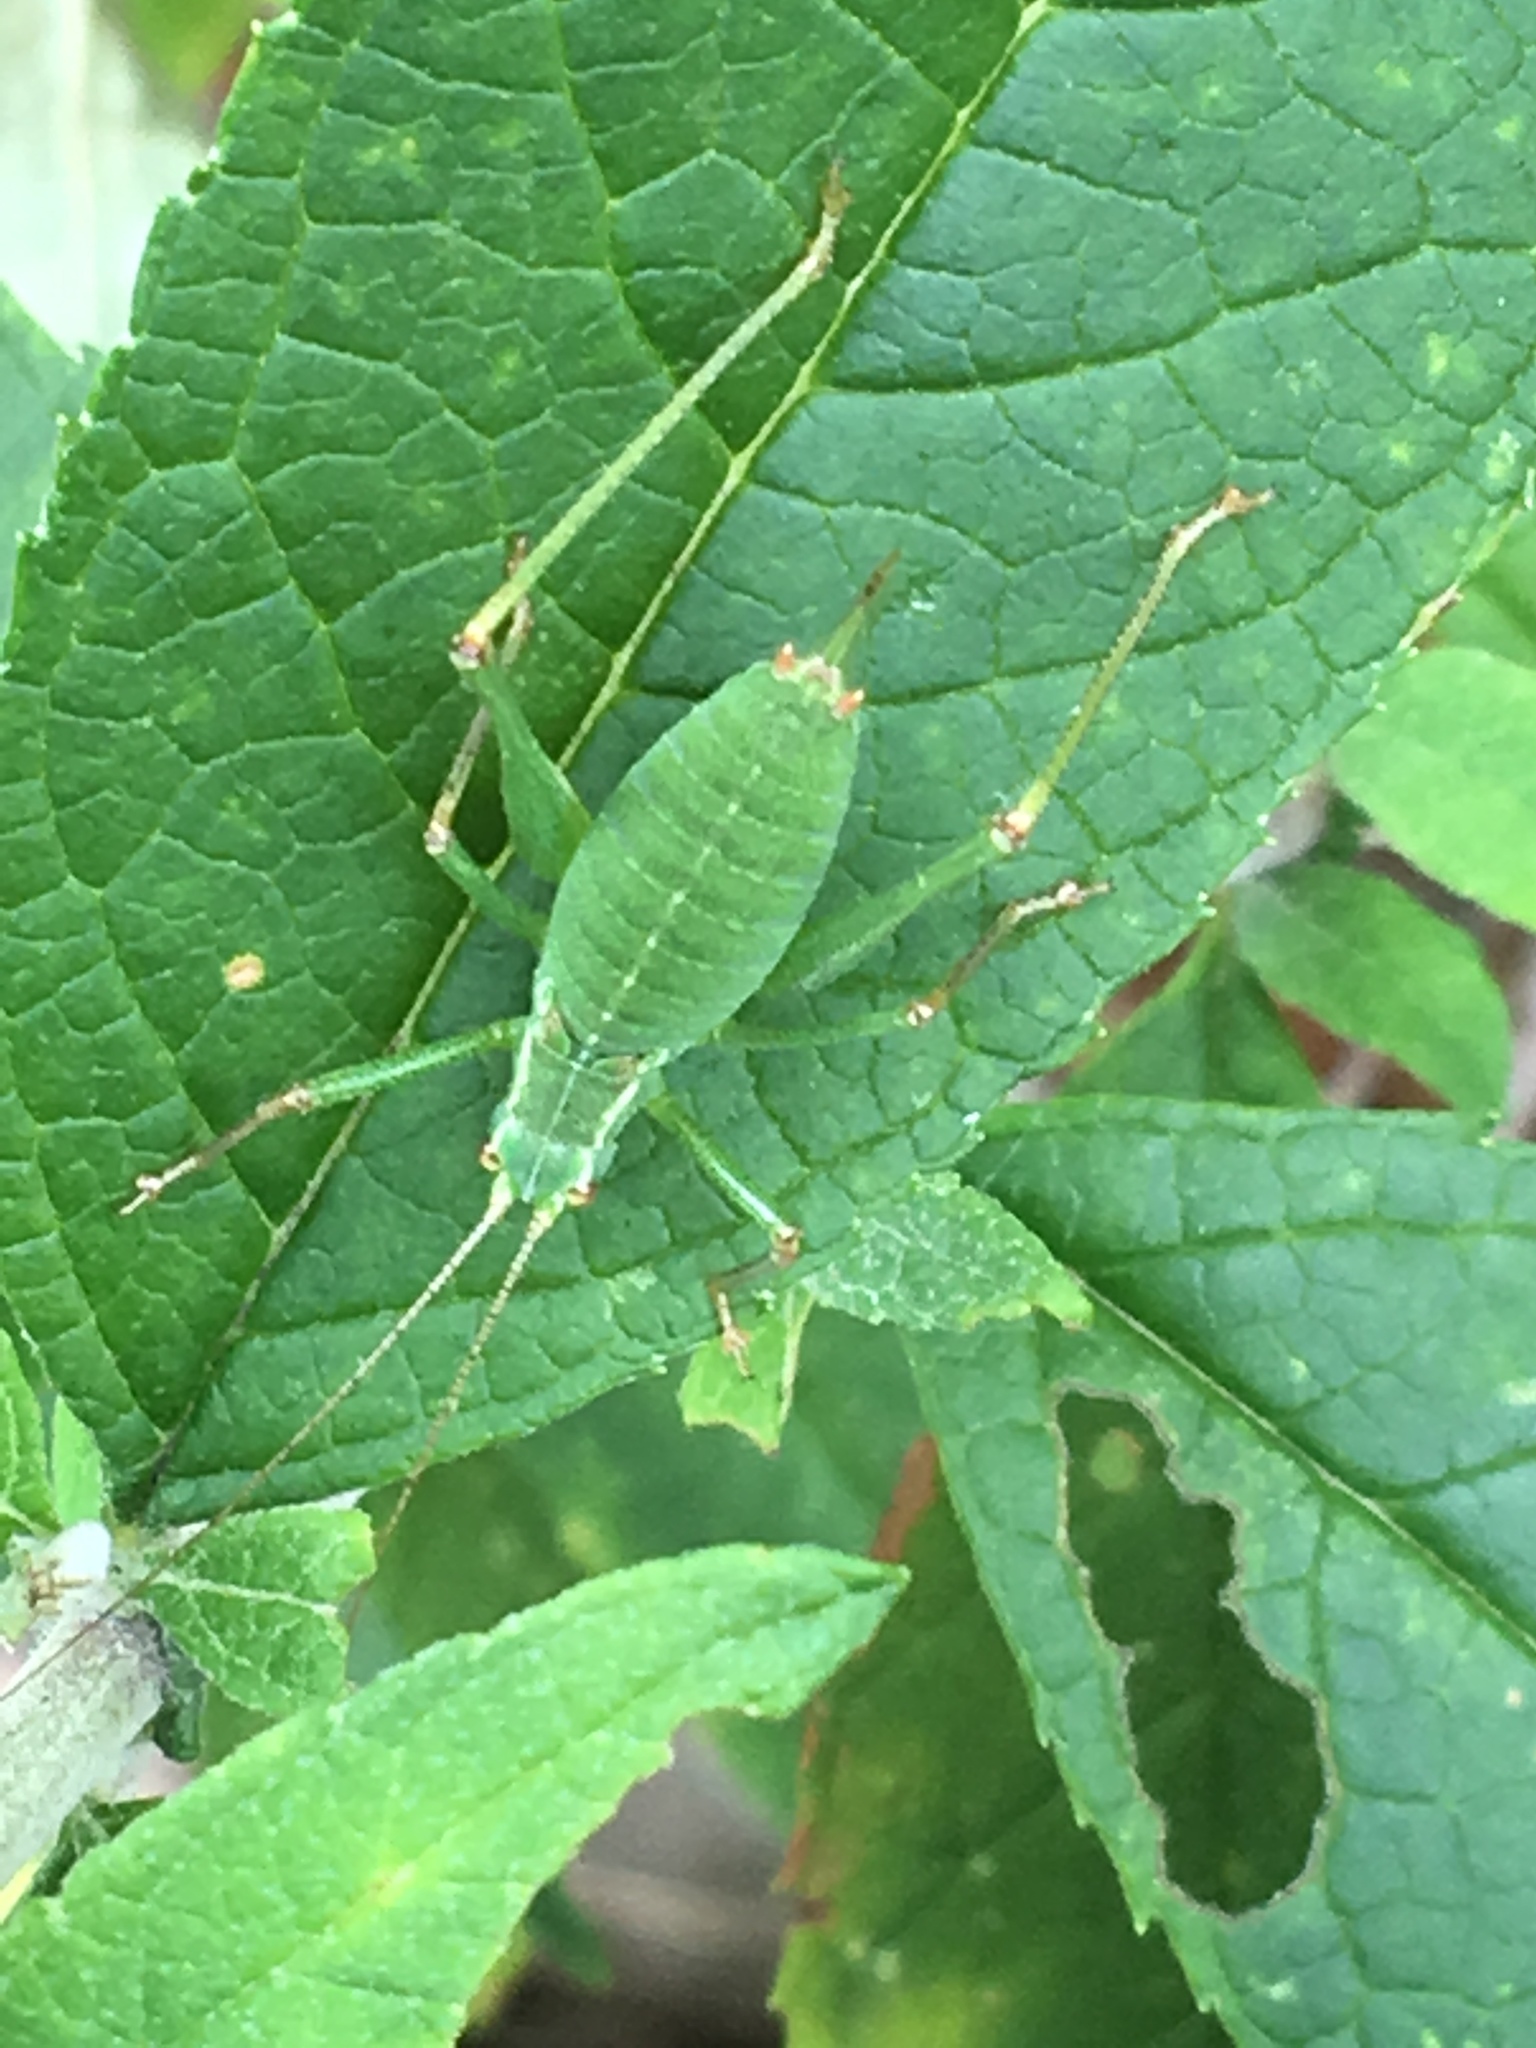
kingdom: Animalia
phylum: Arthropoda
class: Insecta
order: Orthoptera
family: Tettigoniidae
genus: Leptophyes
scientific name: Leptophyes punctatissima
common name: Speckled bush-cricket
